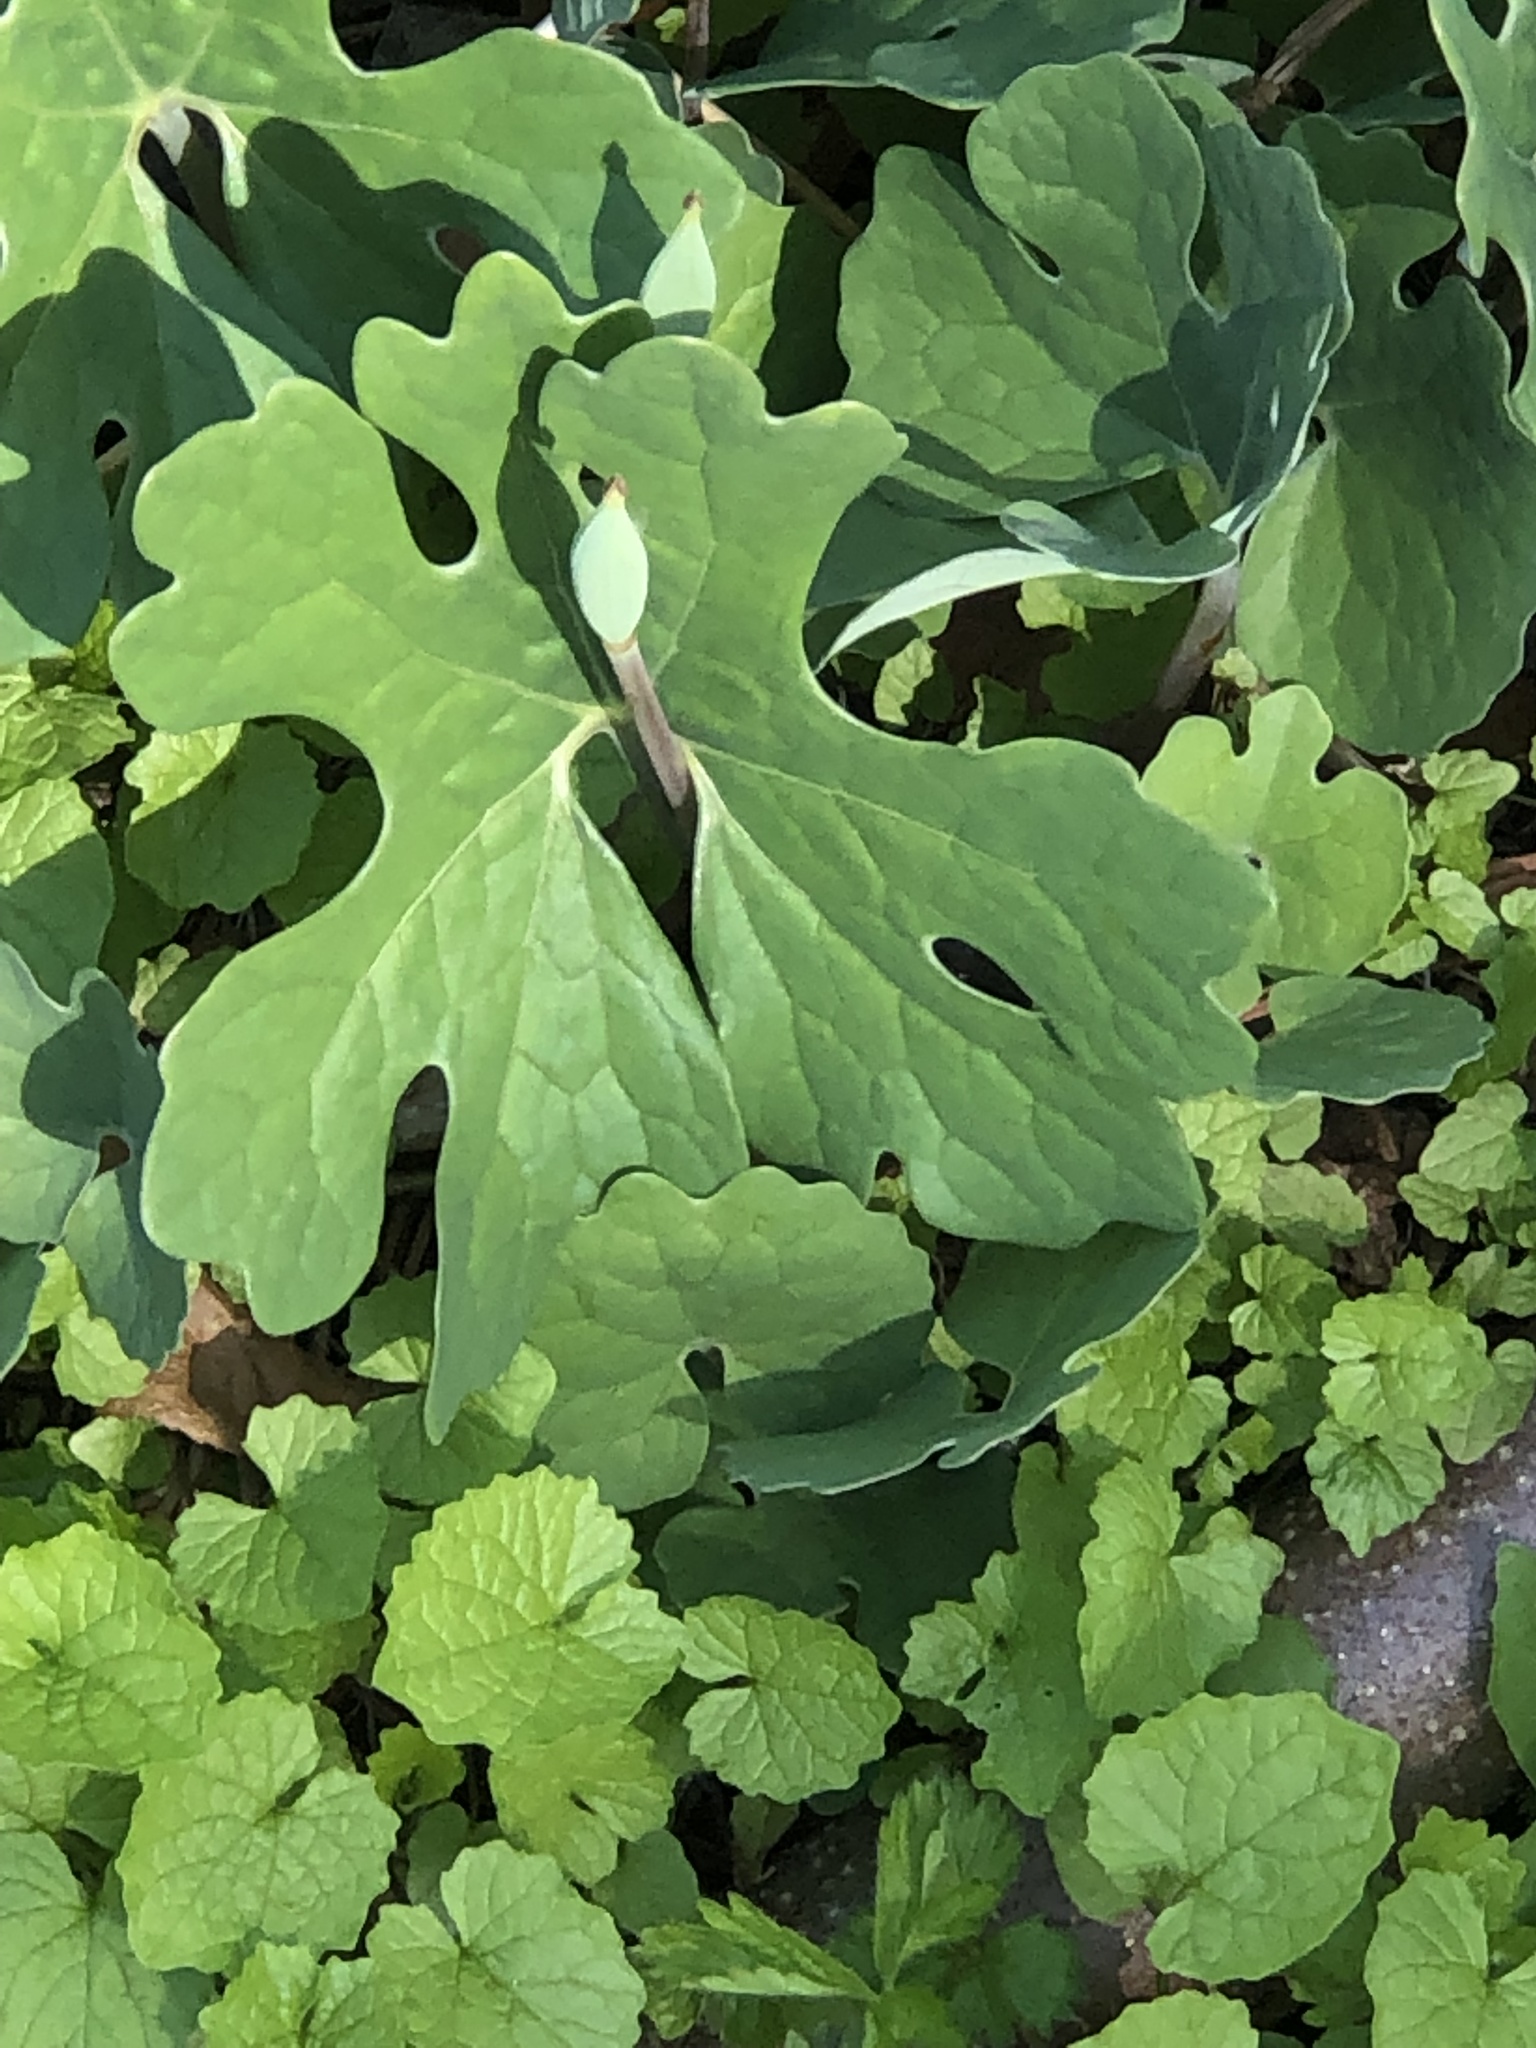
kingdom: Plantae
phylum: Tracheophyta
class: Magnoliopsida
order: Ranunculales
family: Papaveraceae
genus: Sanguinaria
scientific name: Sanguinaria canadensis
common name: Bloodroot
